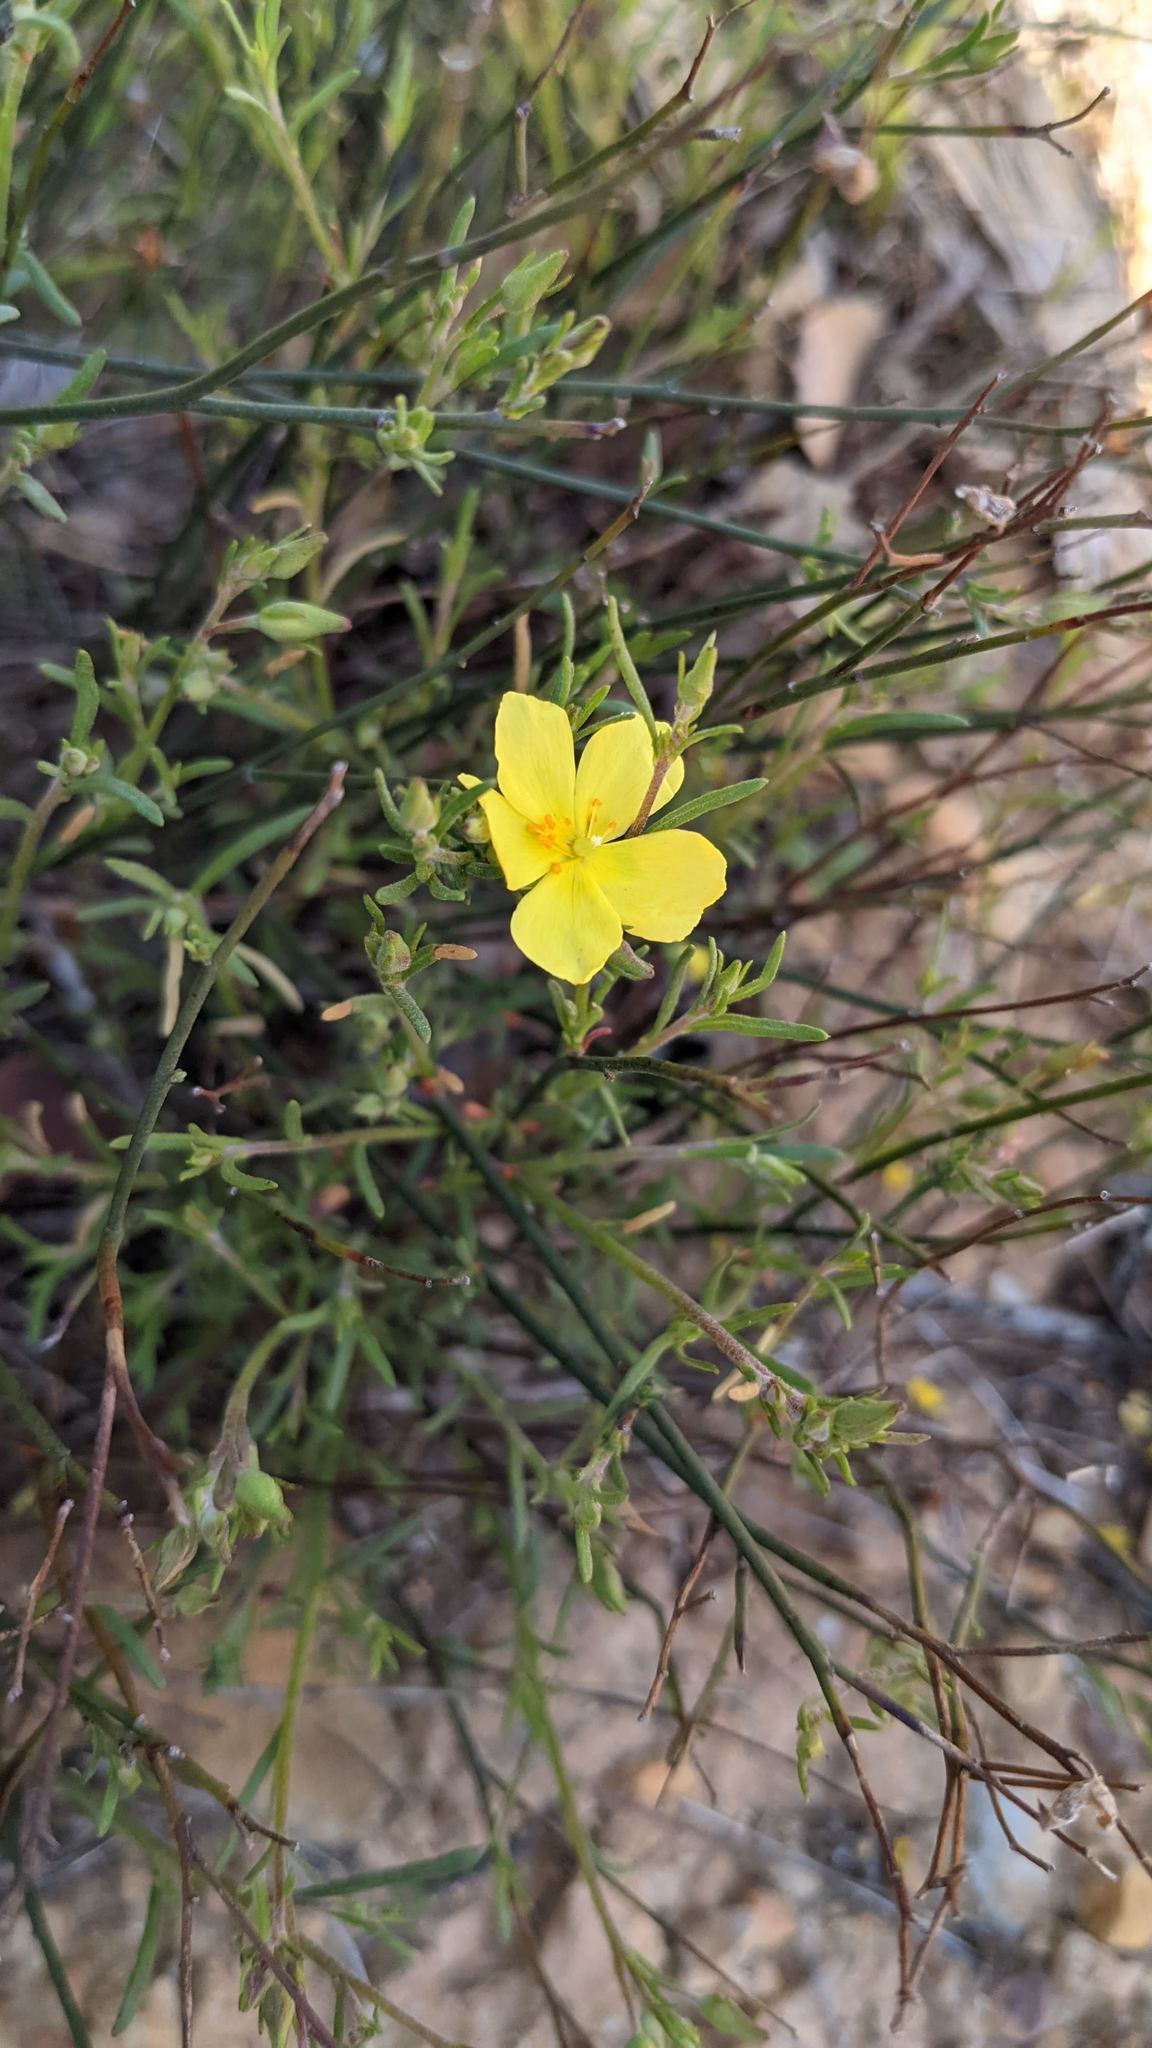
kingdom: Plantae
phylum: Tracheophyta
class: Magnoliopsida
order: Malvales
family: Cistaceae
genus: Crocanthemum
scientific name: Crocanthemum scoparium
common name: Broom-rose
